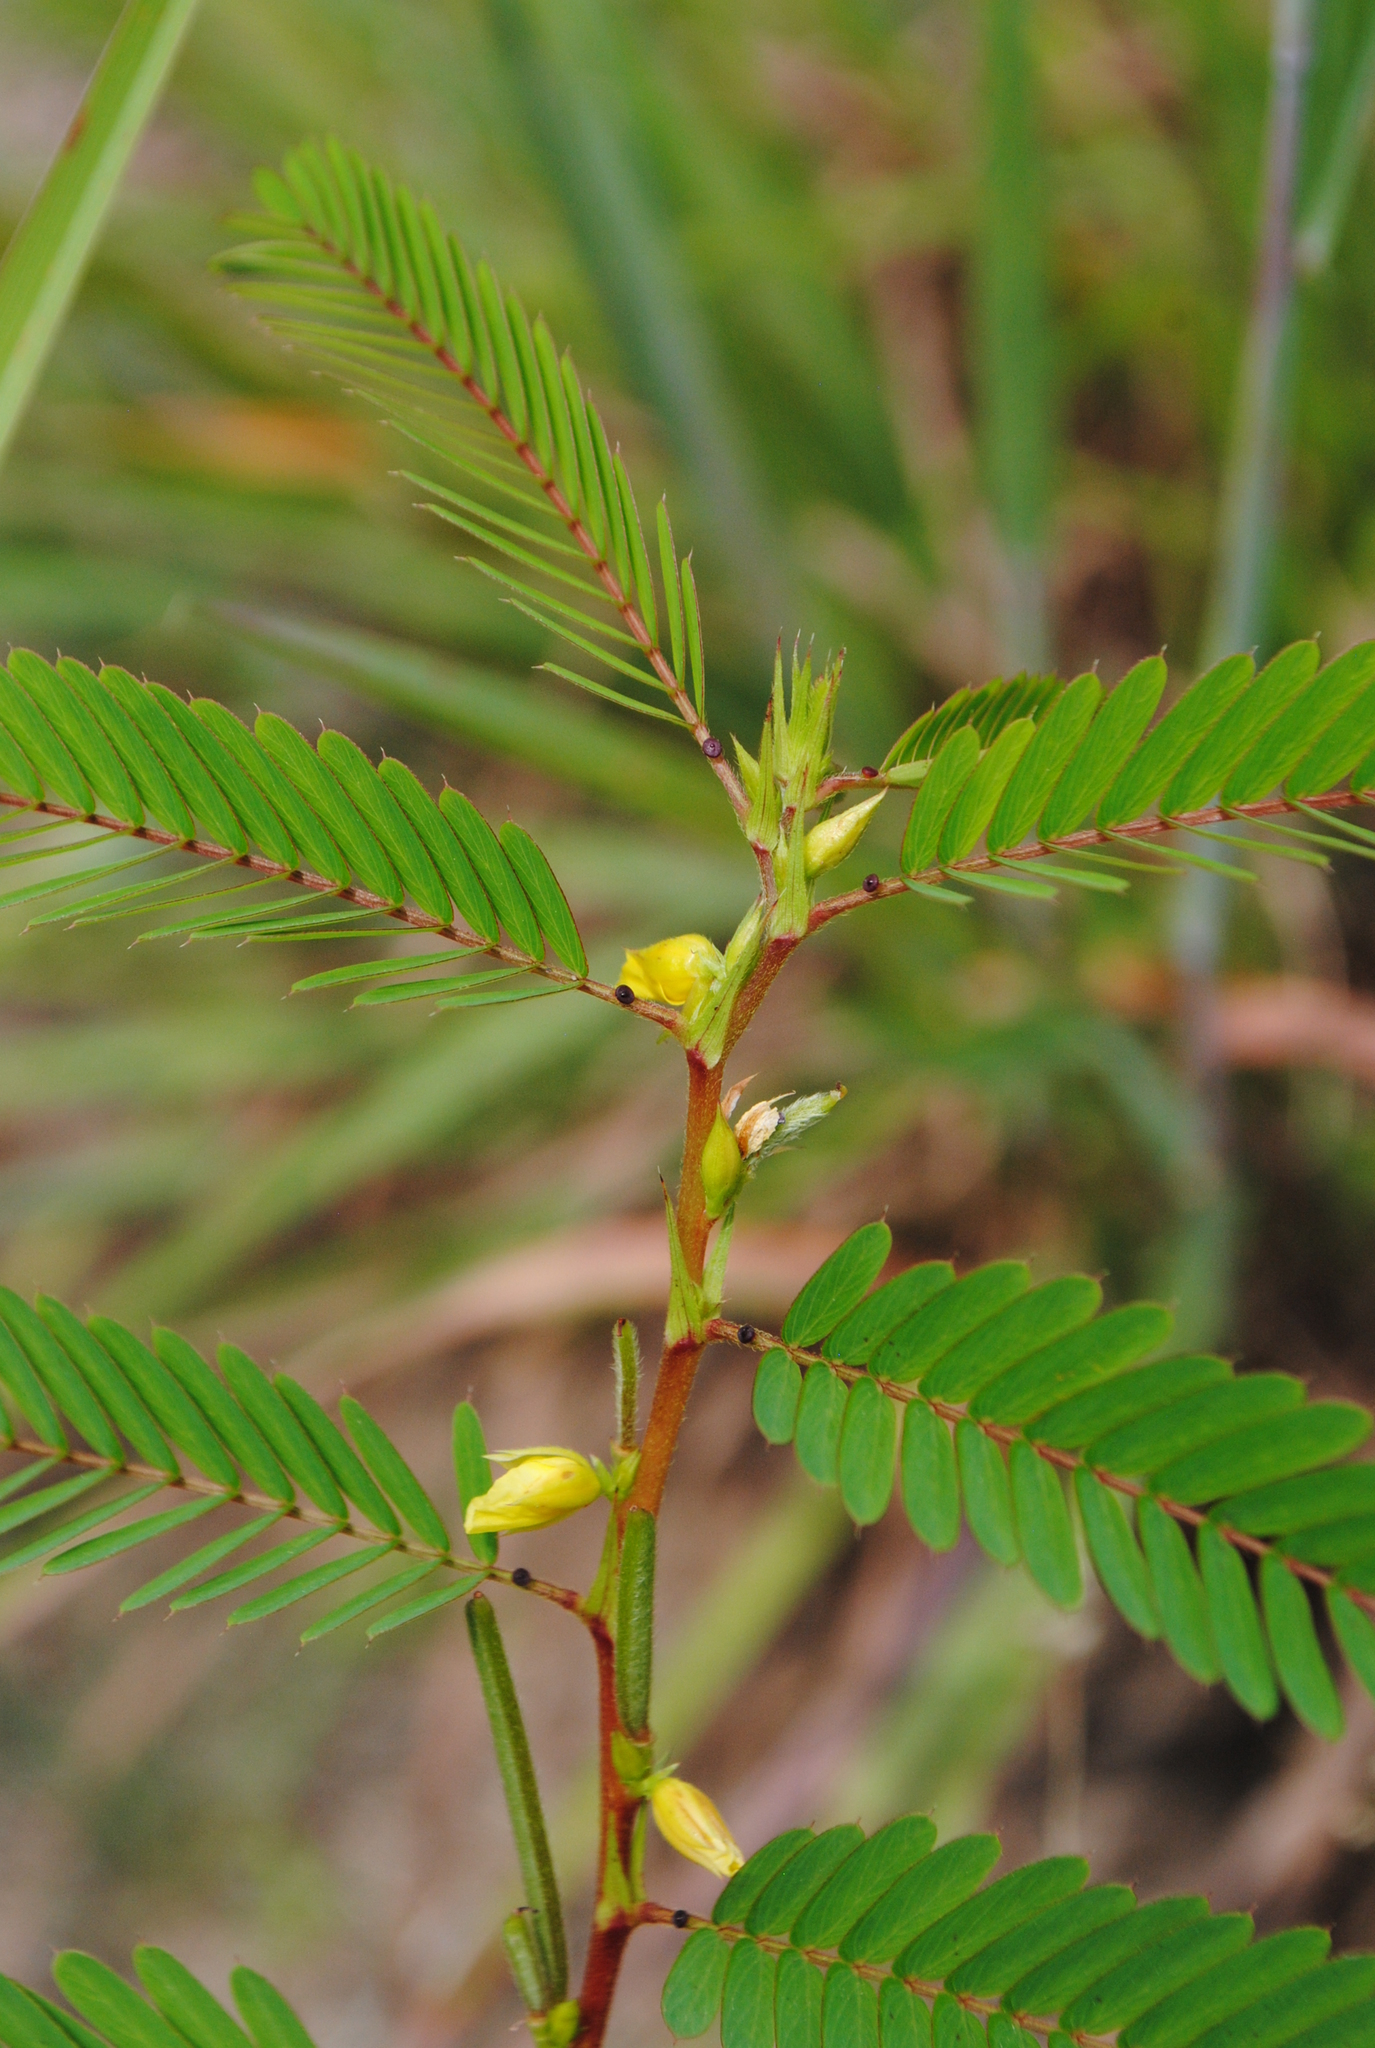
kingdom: Plantae
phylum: Tracheophyta
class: Magnoliopsida
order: Fabales
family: Fabaceae
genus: Chamaecrista
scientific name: Chamaecrista nictitans
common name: Sensitive cassia
